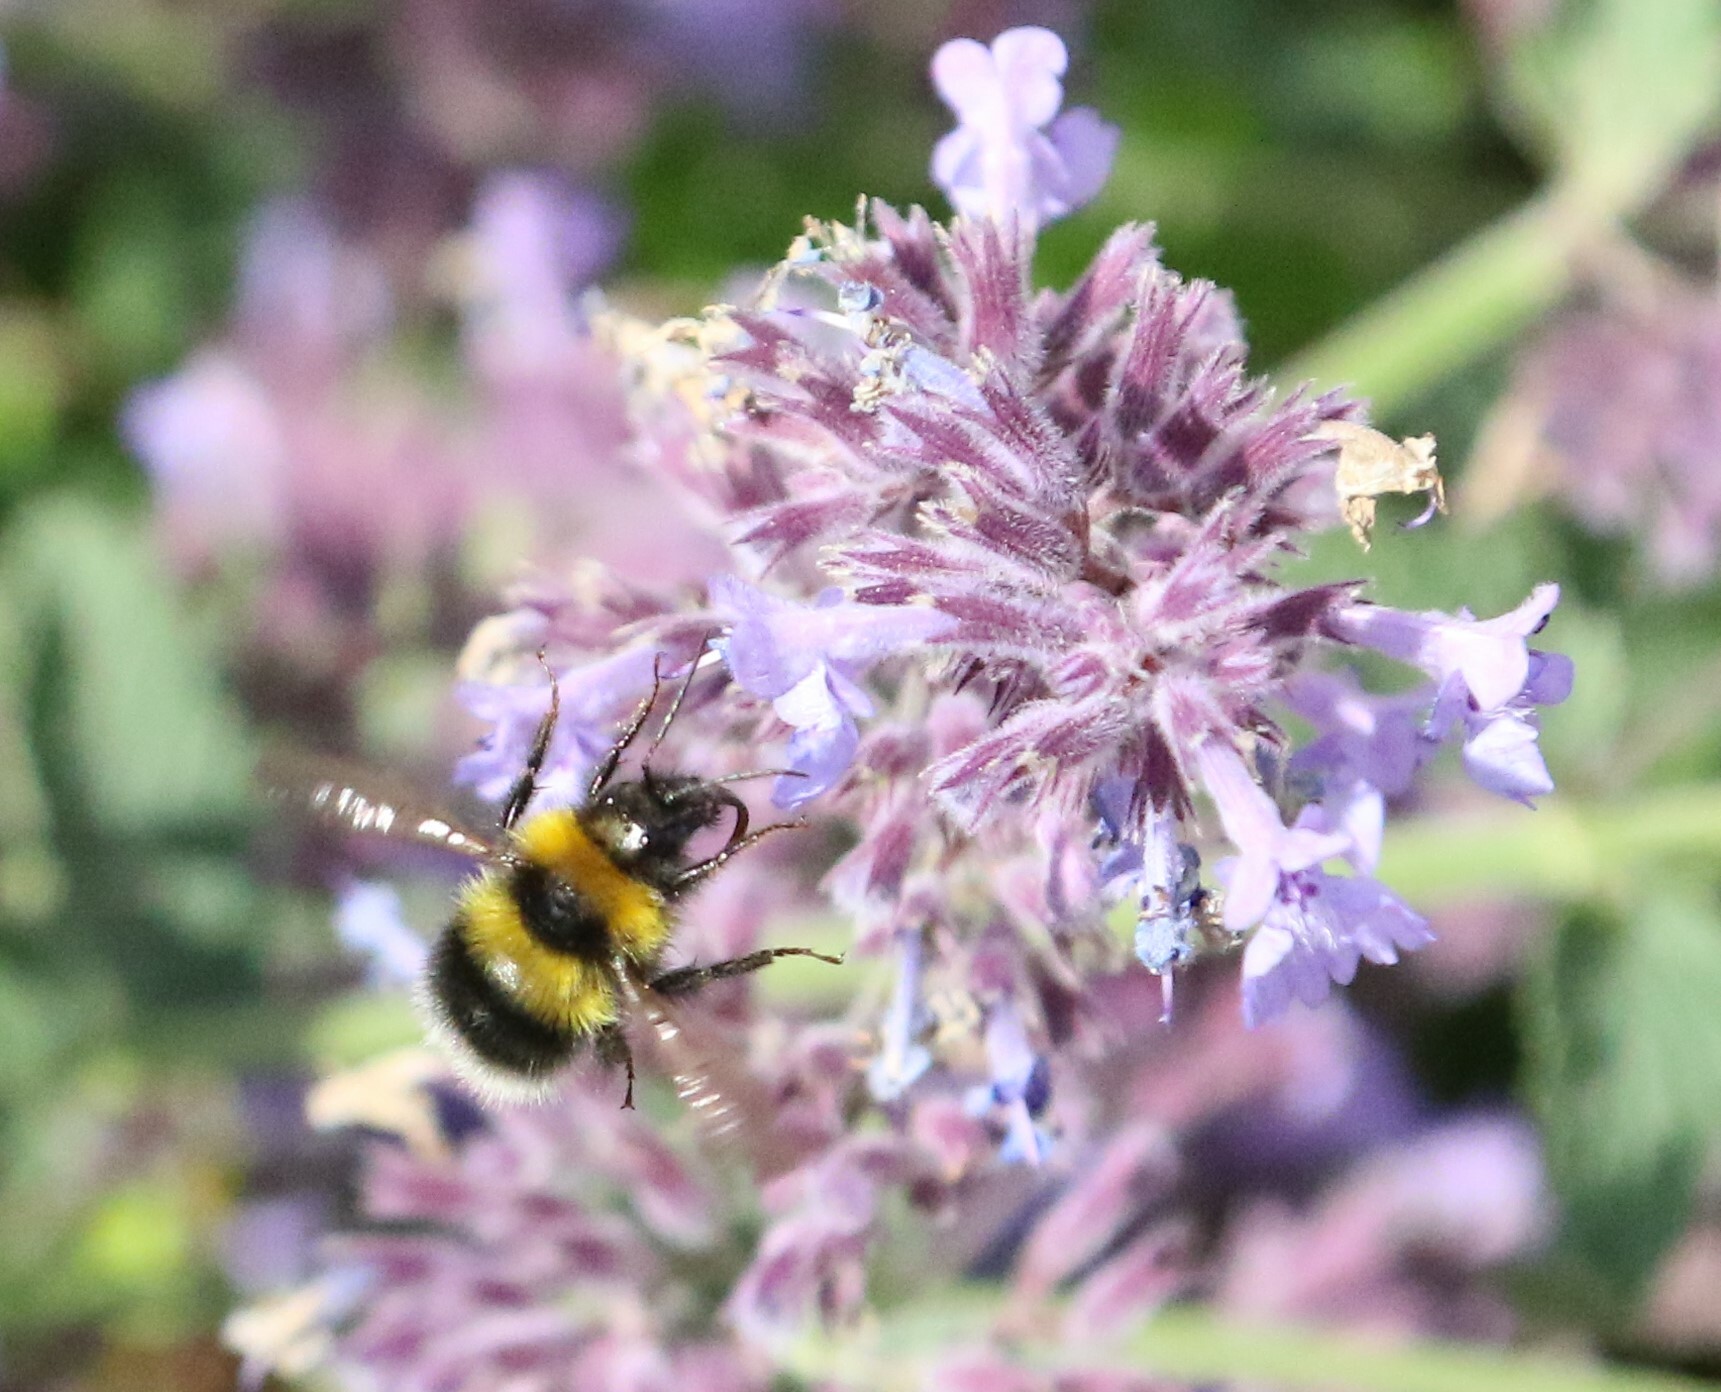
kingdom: Animalia
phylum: Arthropoda
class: Insecta
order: Hymenoptera
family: Apidae
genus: Bombus
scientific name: Bombus hortorum
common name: Garden bumblebee
